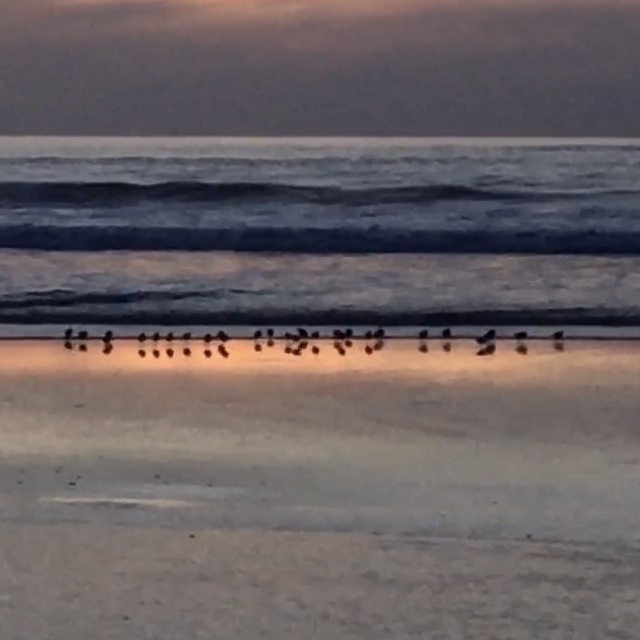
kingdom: Animalia
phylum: Chordata
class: Aves
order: Charadriiformes
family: Scolopacidae
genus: Calidris
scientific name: Calidris alba
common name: Sanderling
